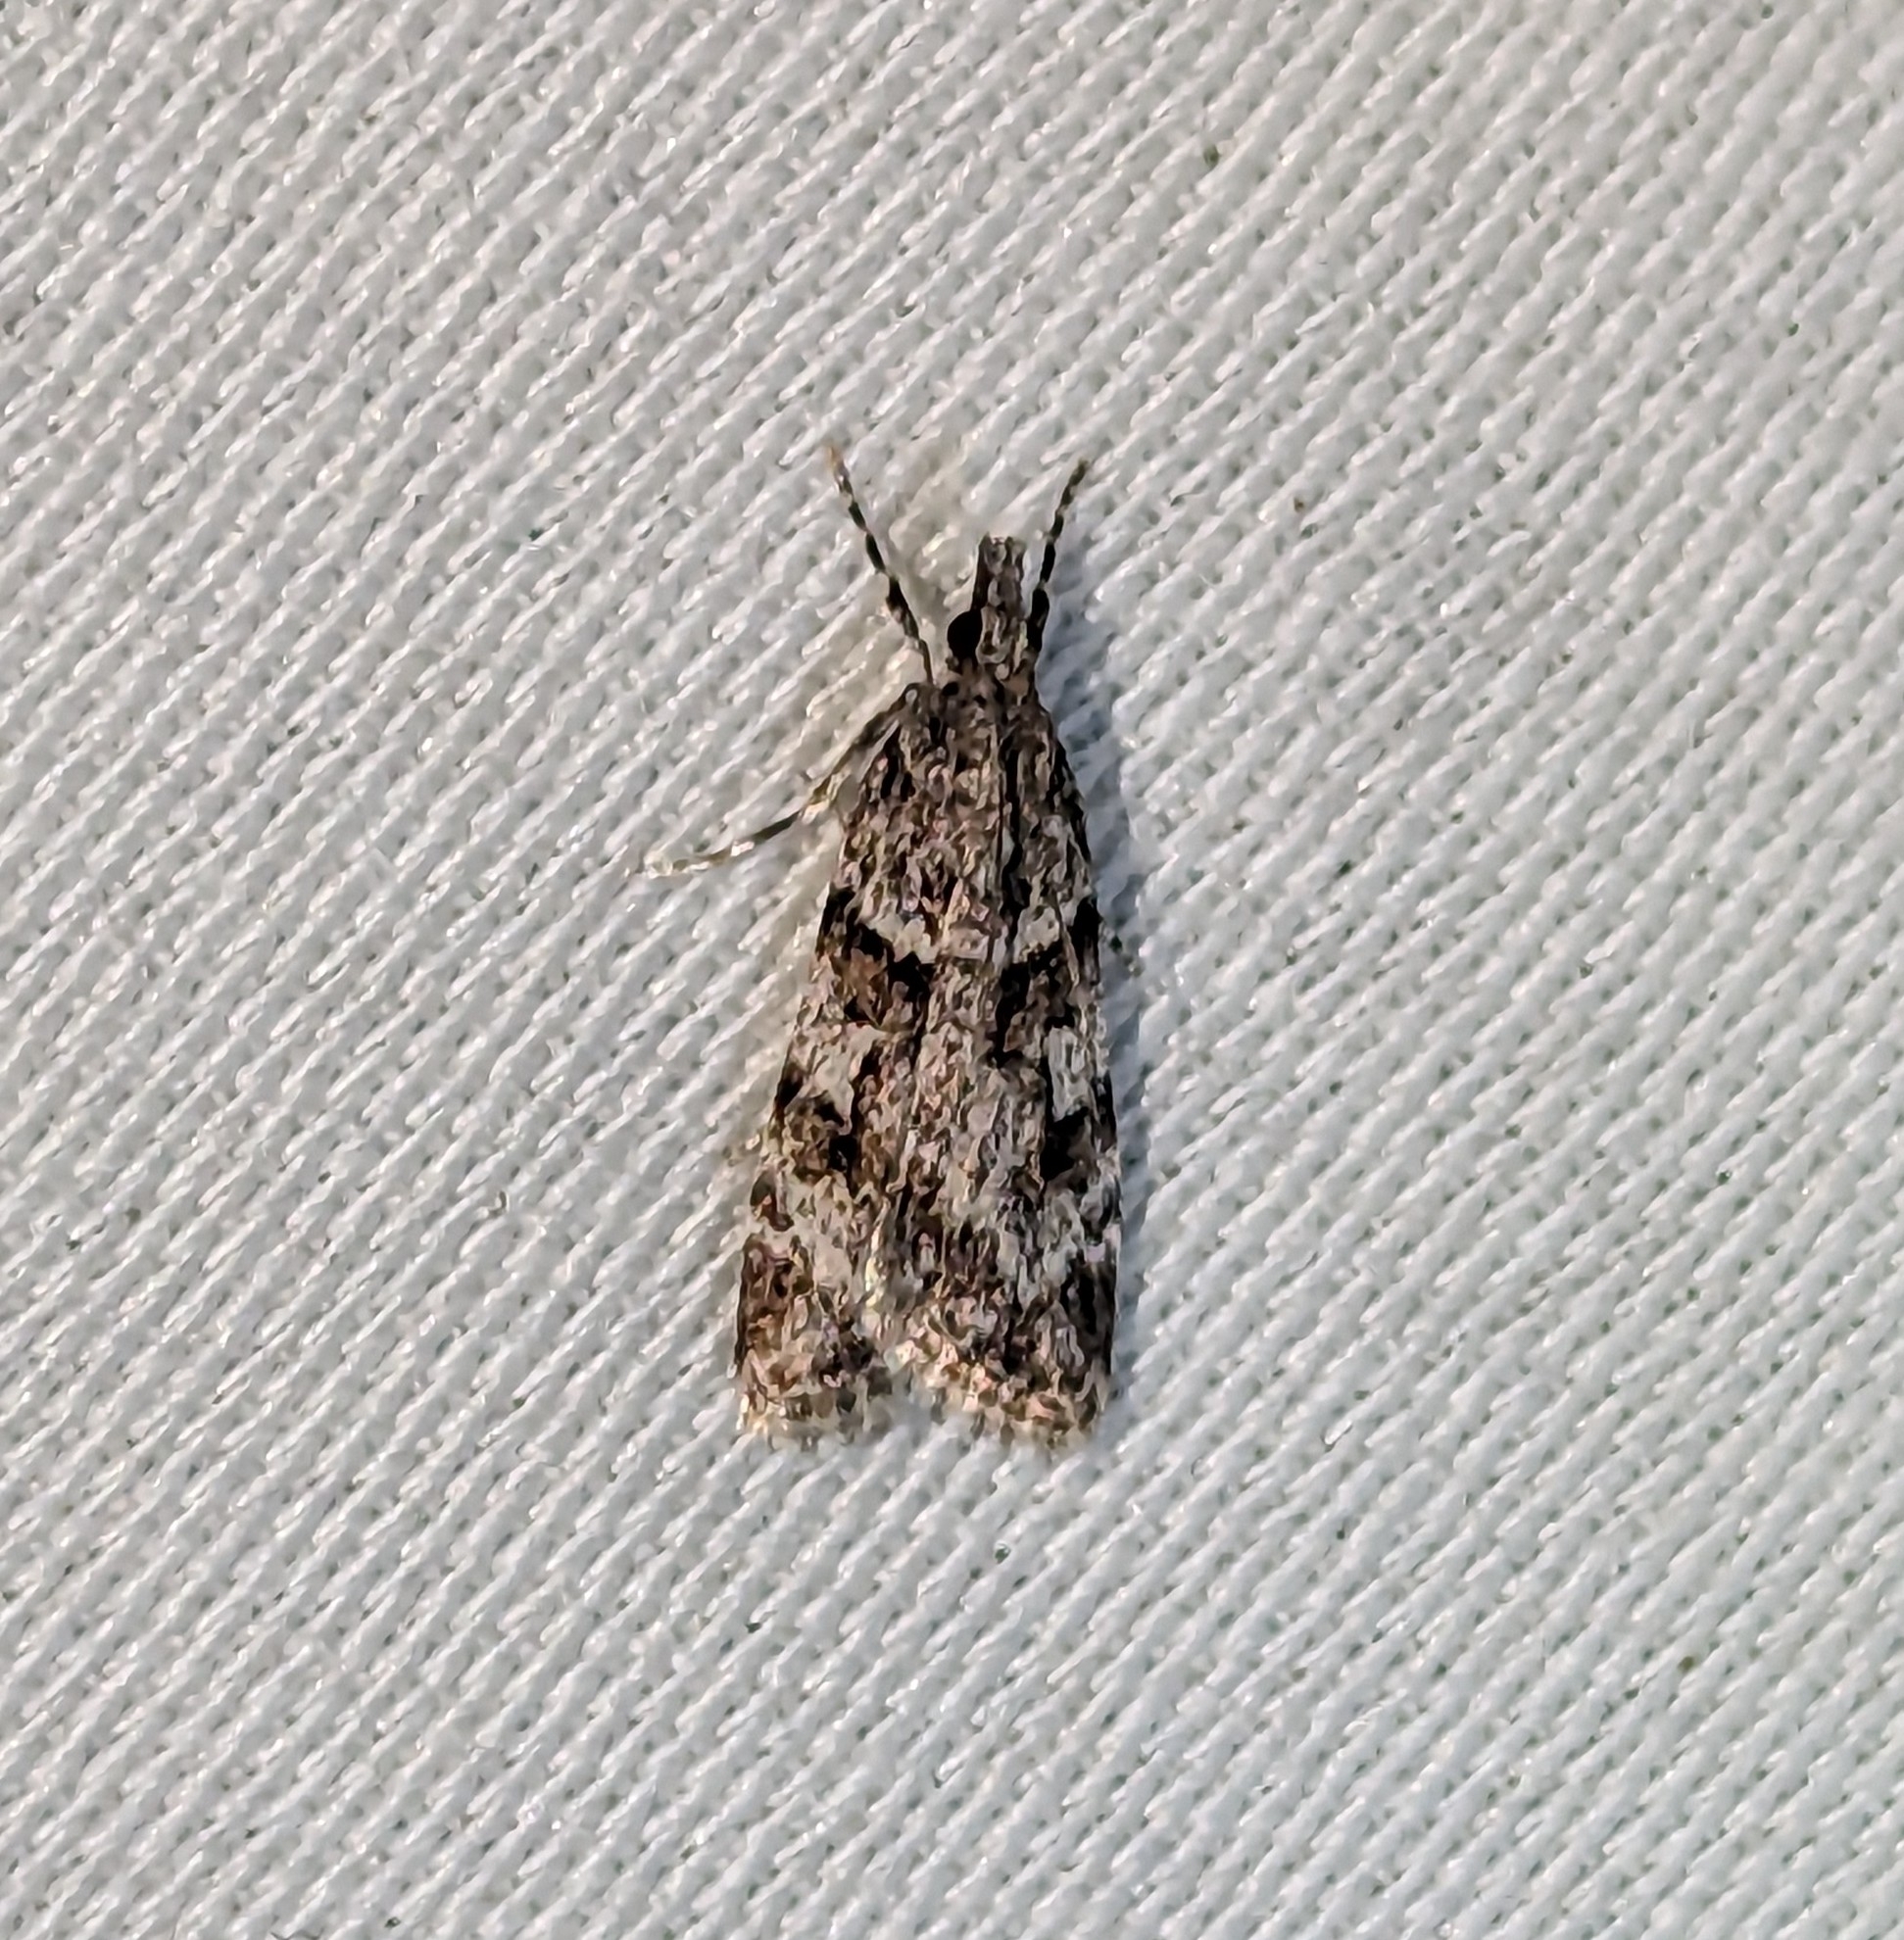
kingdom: Animalia
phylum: Arthropoda
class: Insecta
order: Lepidoptera
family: Crambidae
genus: Scoparia
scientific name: Scoparia biplagialis
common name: Double-striped scoparia moth
